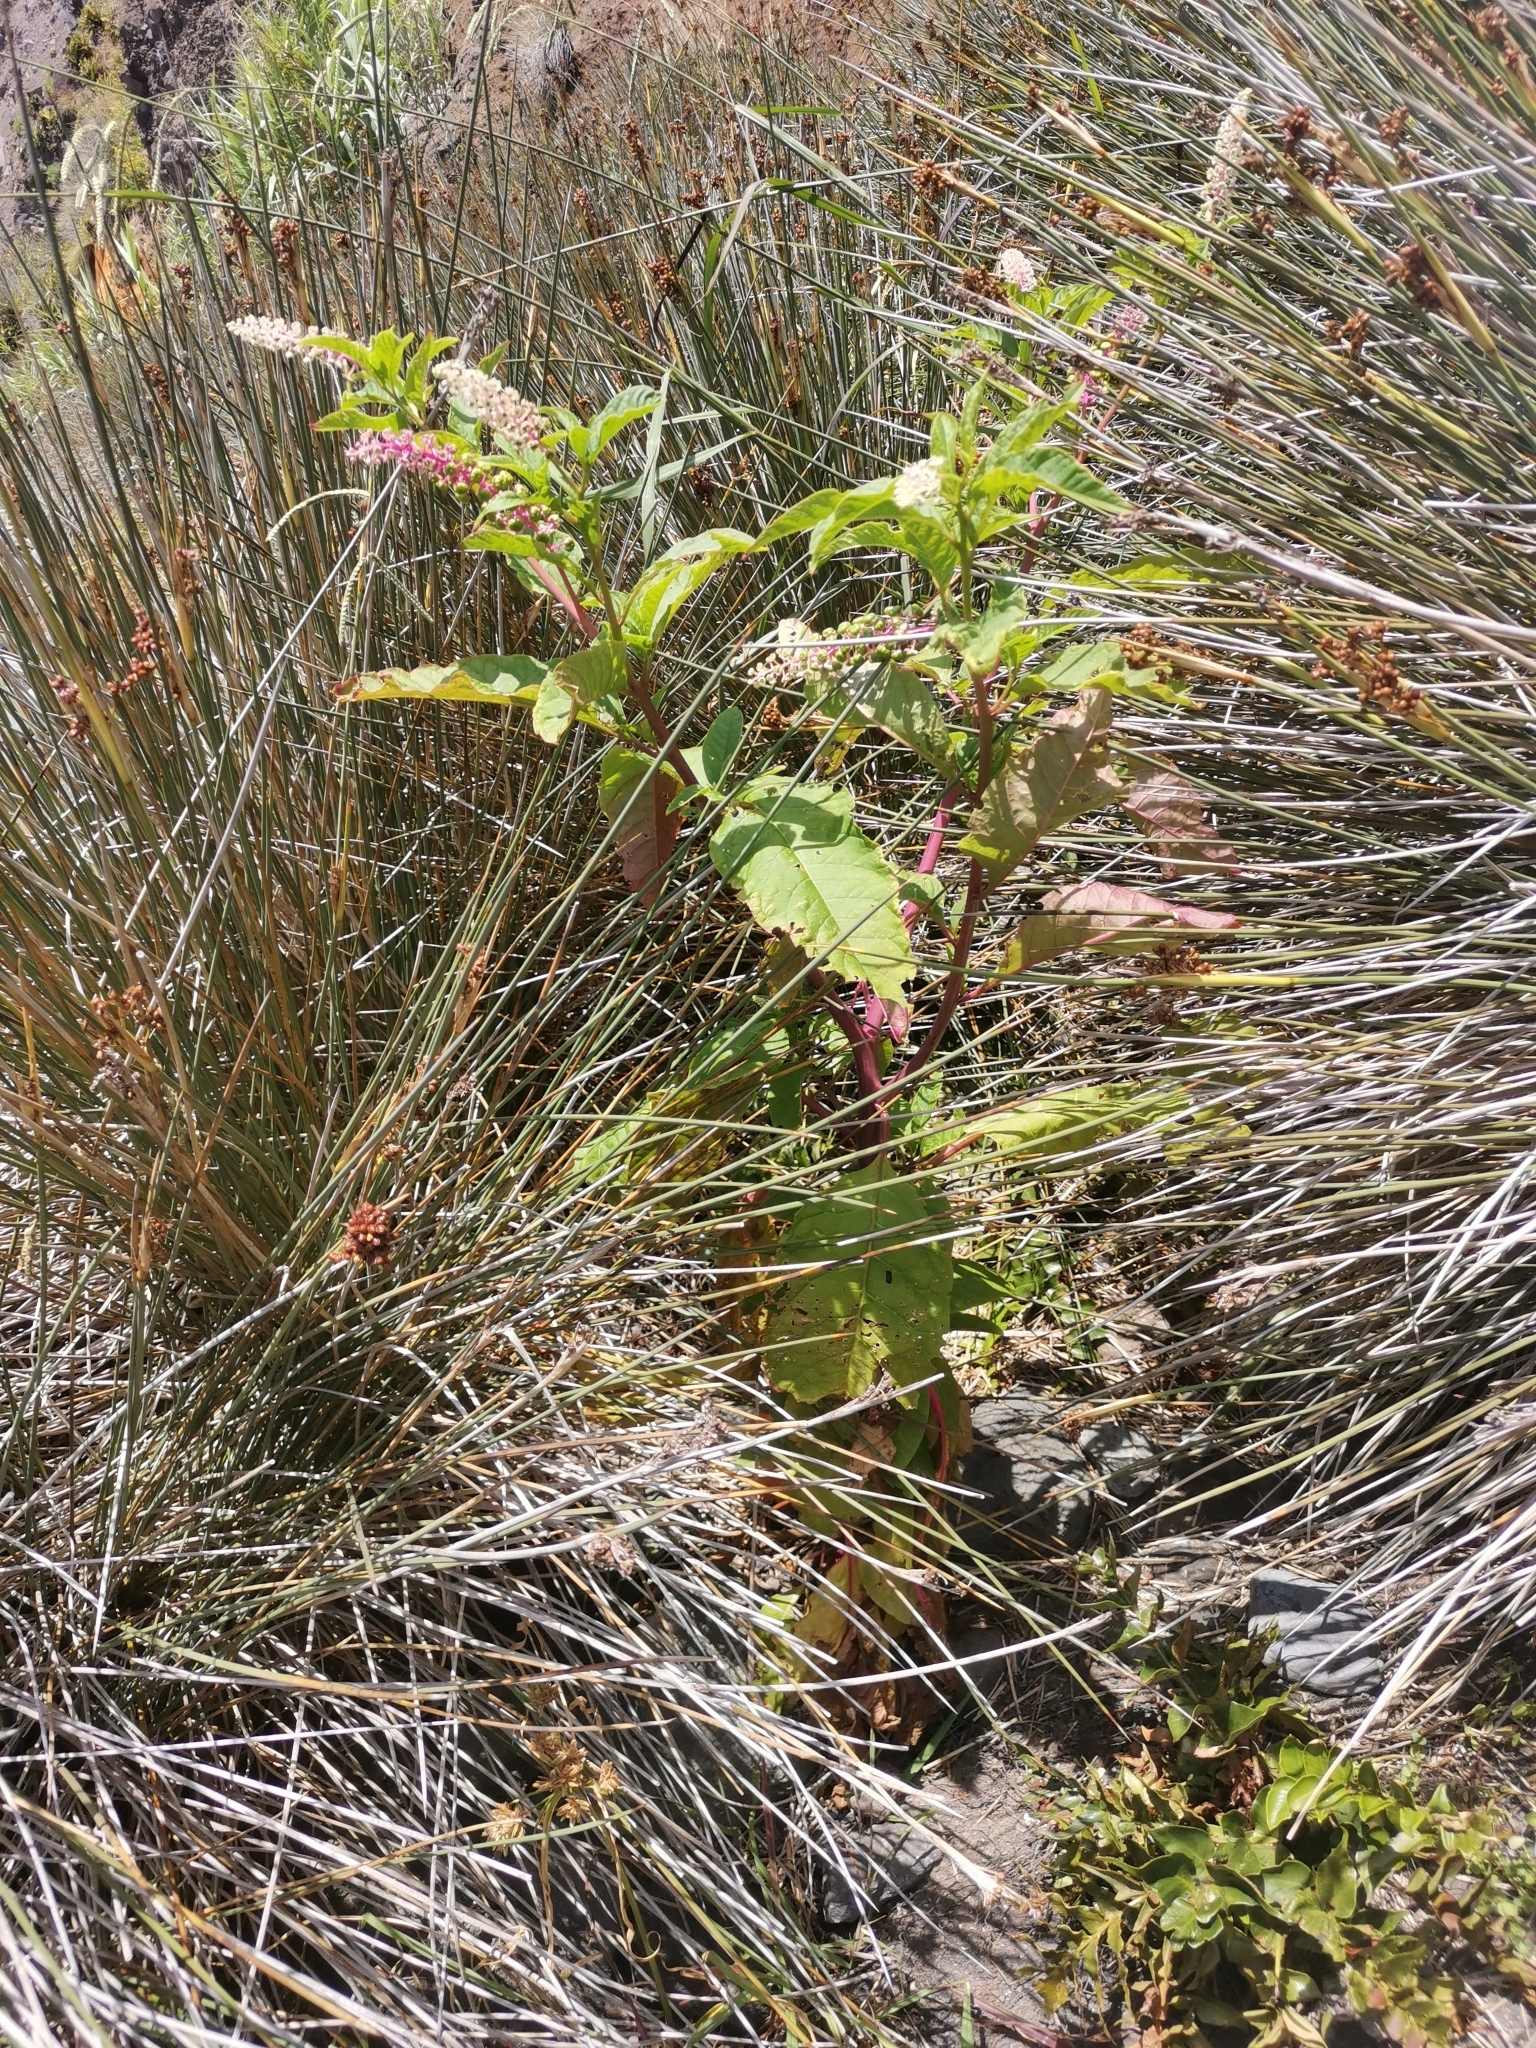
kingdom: Plantae
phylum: Tracheophyta
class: Magnoliopsida
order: Caryophyllales
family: Phytolaccaceae
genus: Phytolacca
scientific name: Phytolacca americana
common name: American pokeweed
